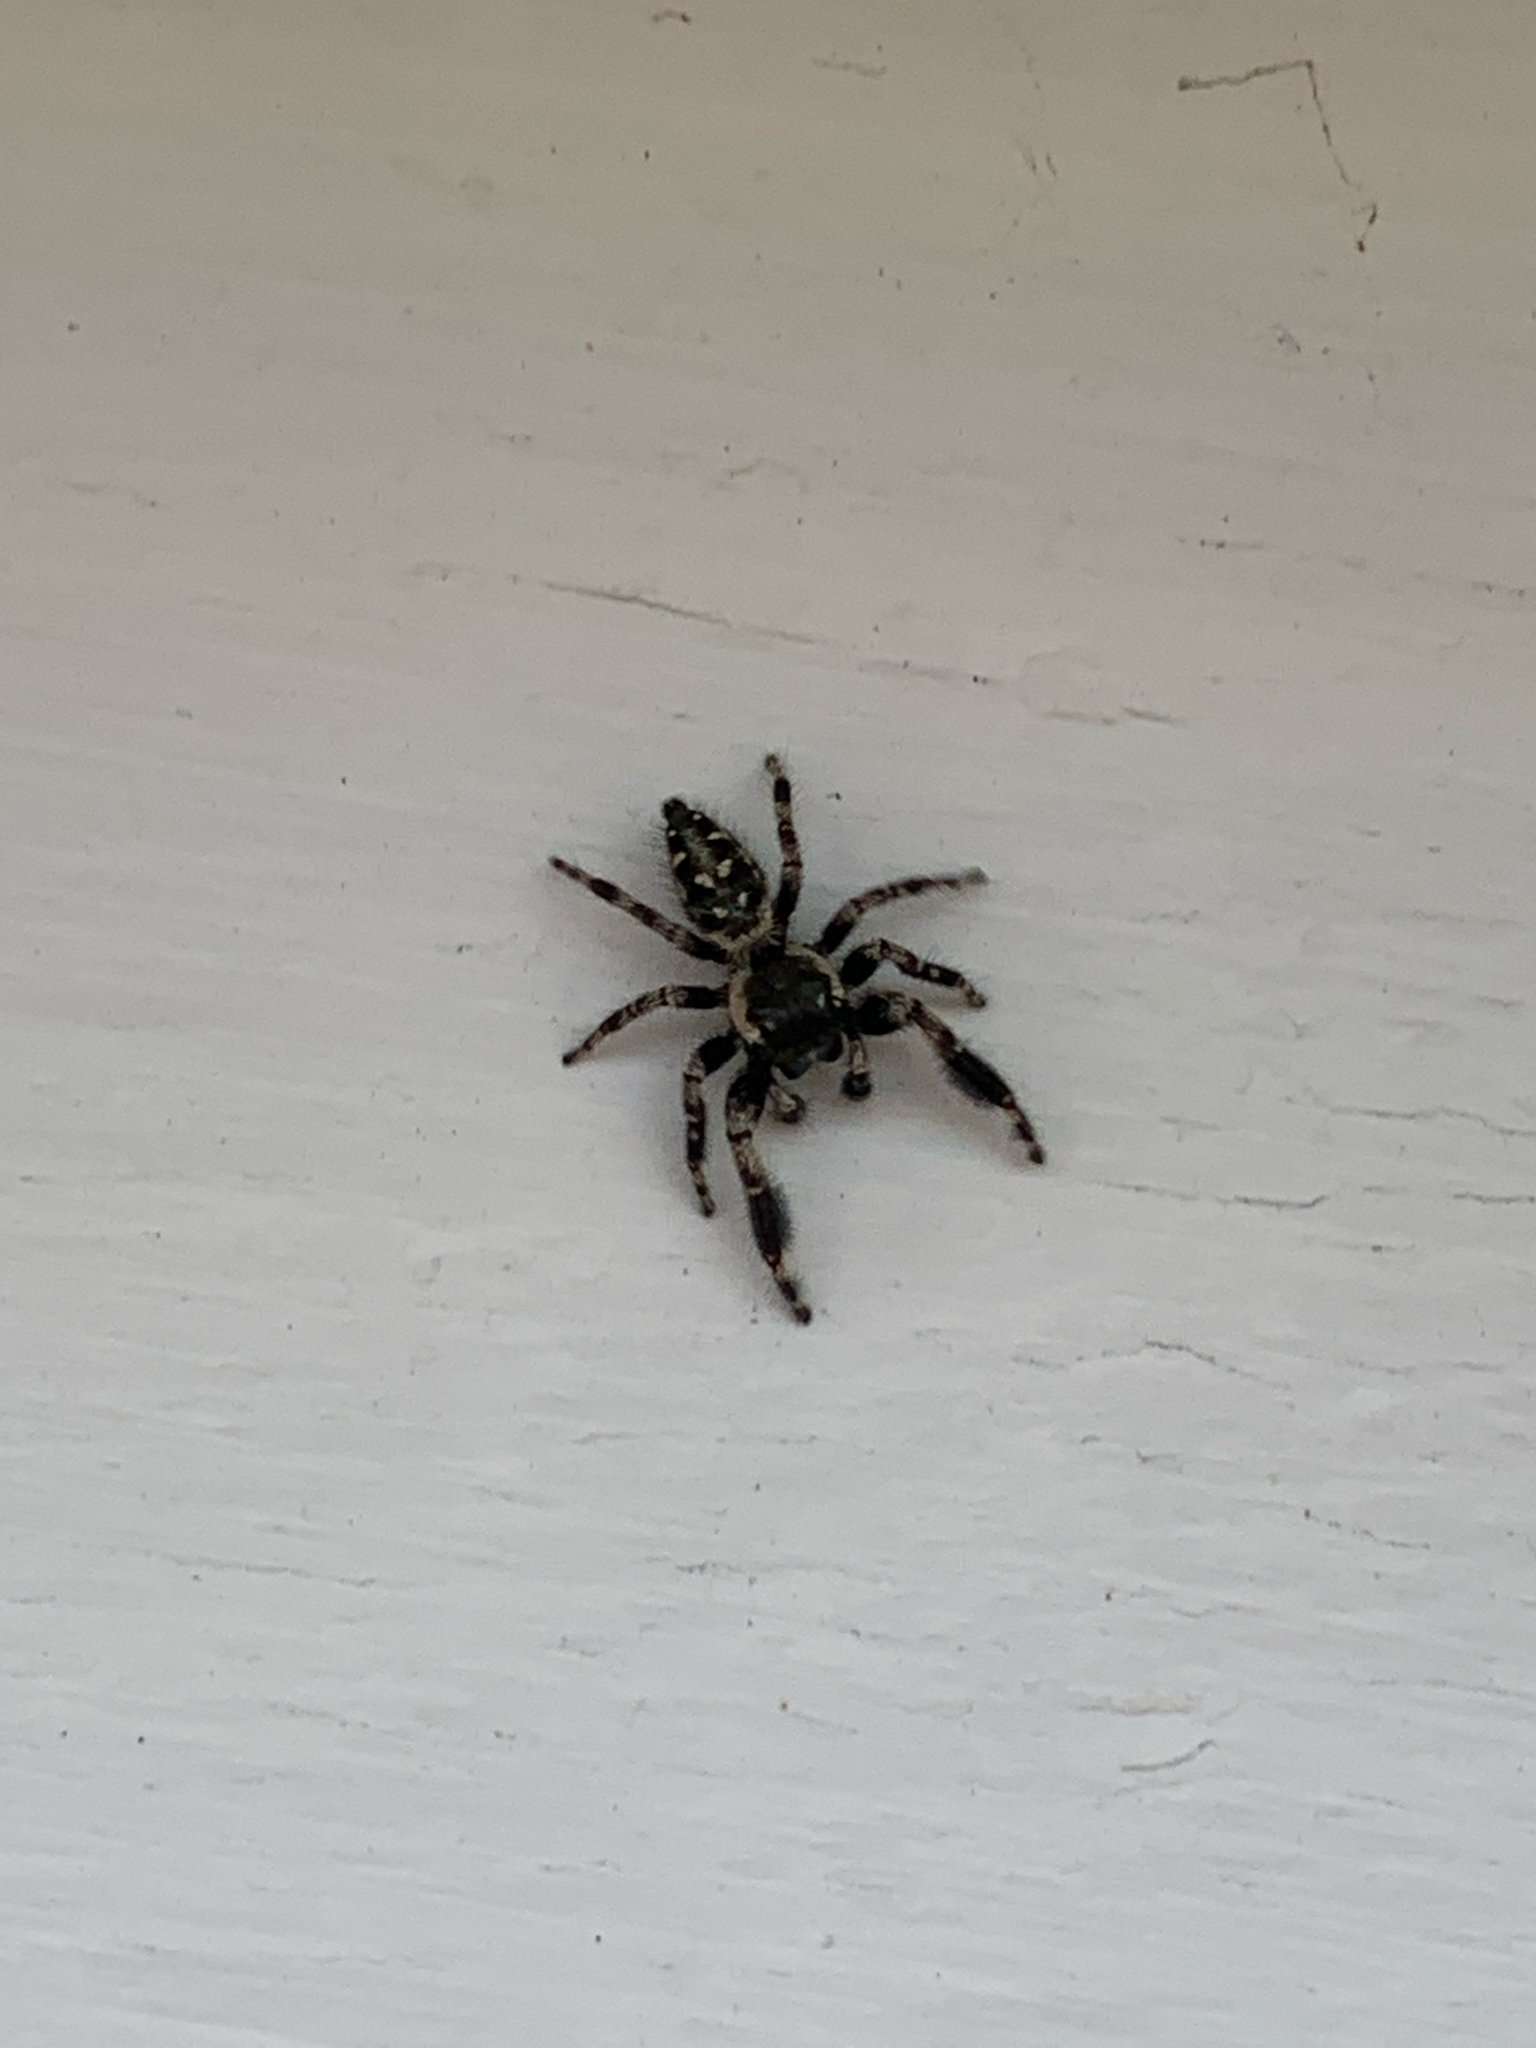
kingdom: Animalia
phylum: Arthropoda
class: Arachnida
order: Araneae
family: Salticidae
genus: Phidippus
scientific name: Phidippus otiosus
